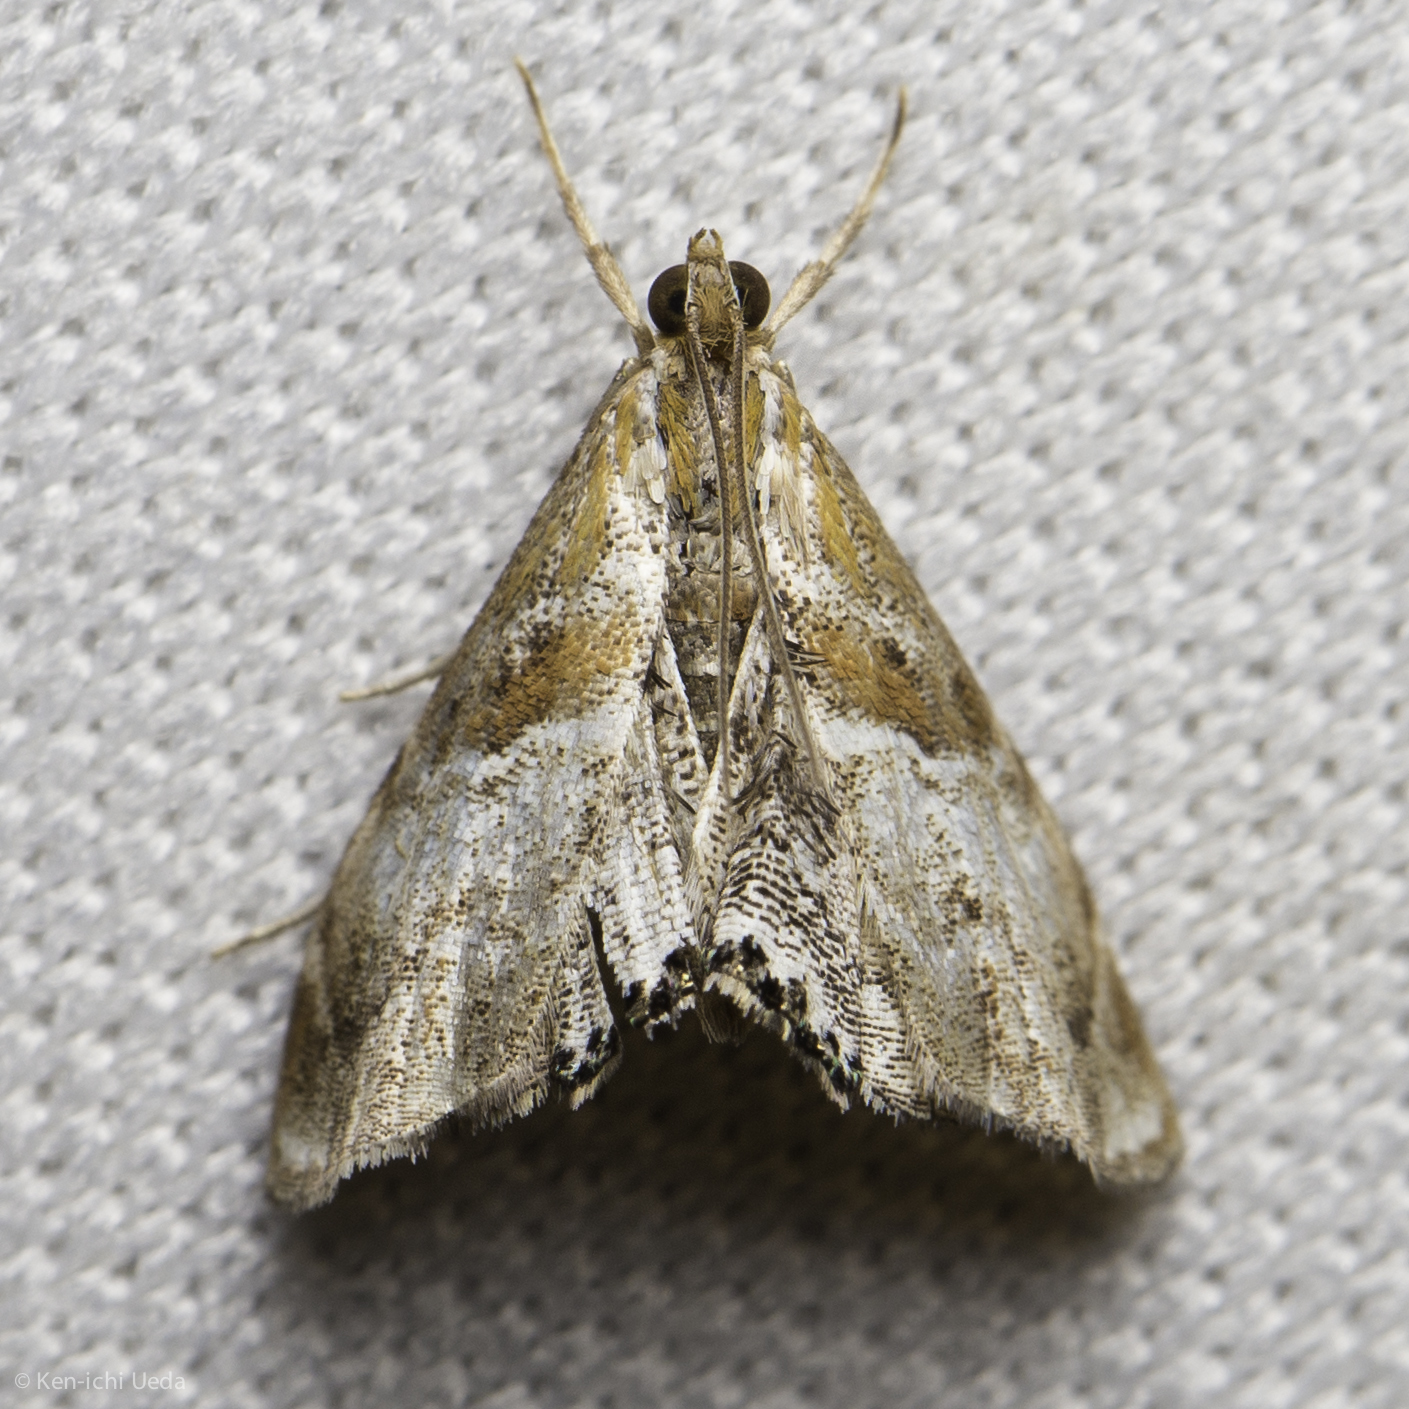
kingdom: Animalia
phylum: Arthropoda
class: Insecta
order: Lepidoptera
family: Crambidae
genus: Dicymolomia
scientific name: Dicymolomia metalliferalis
